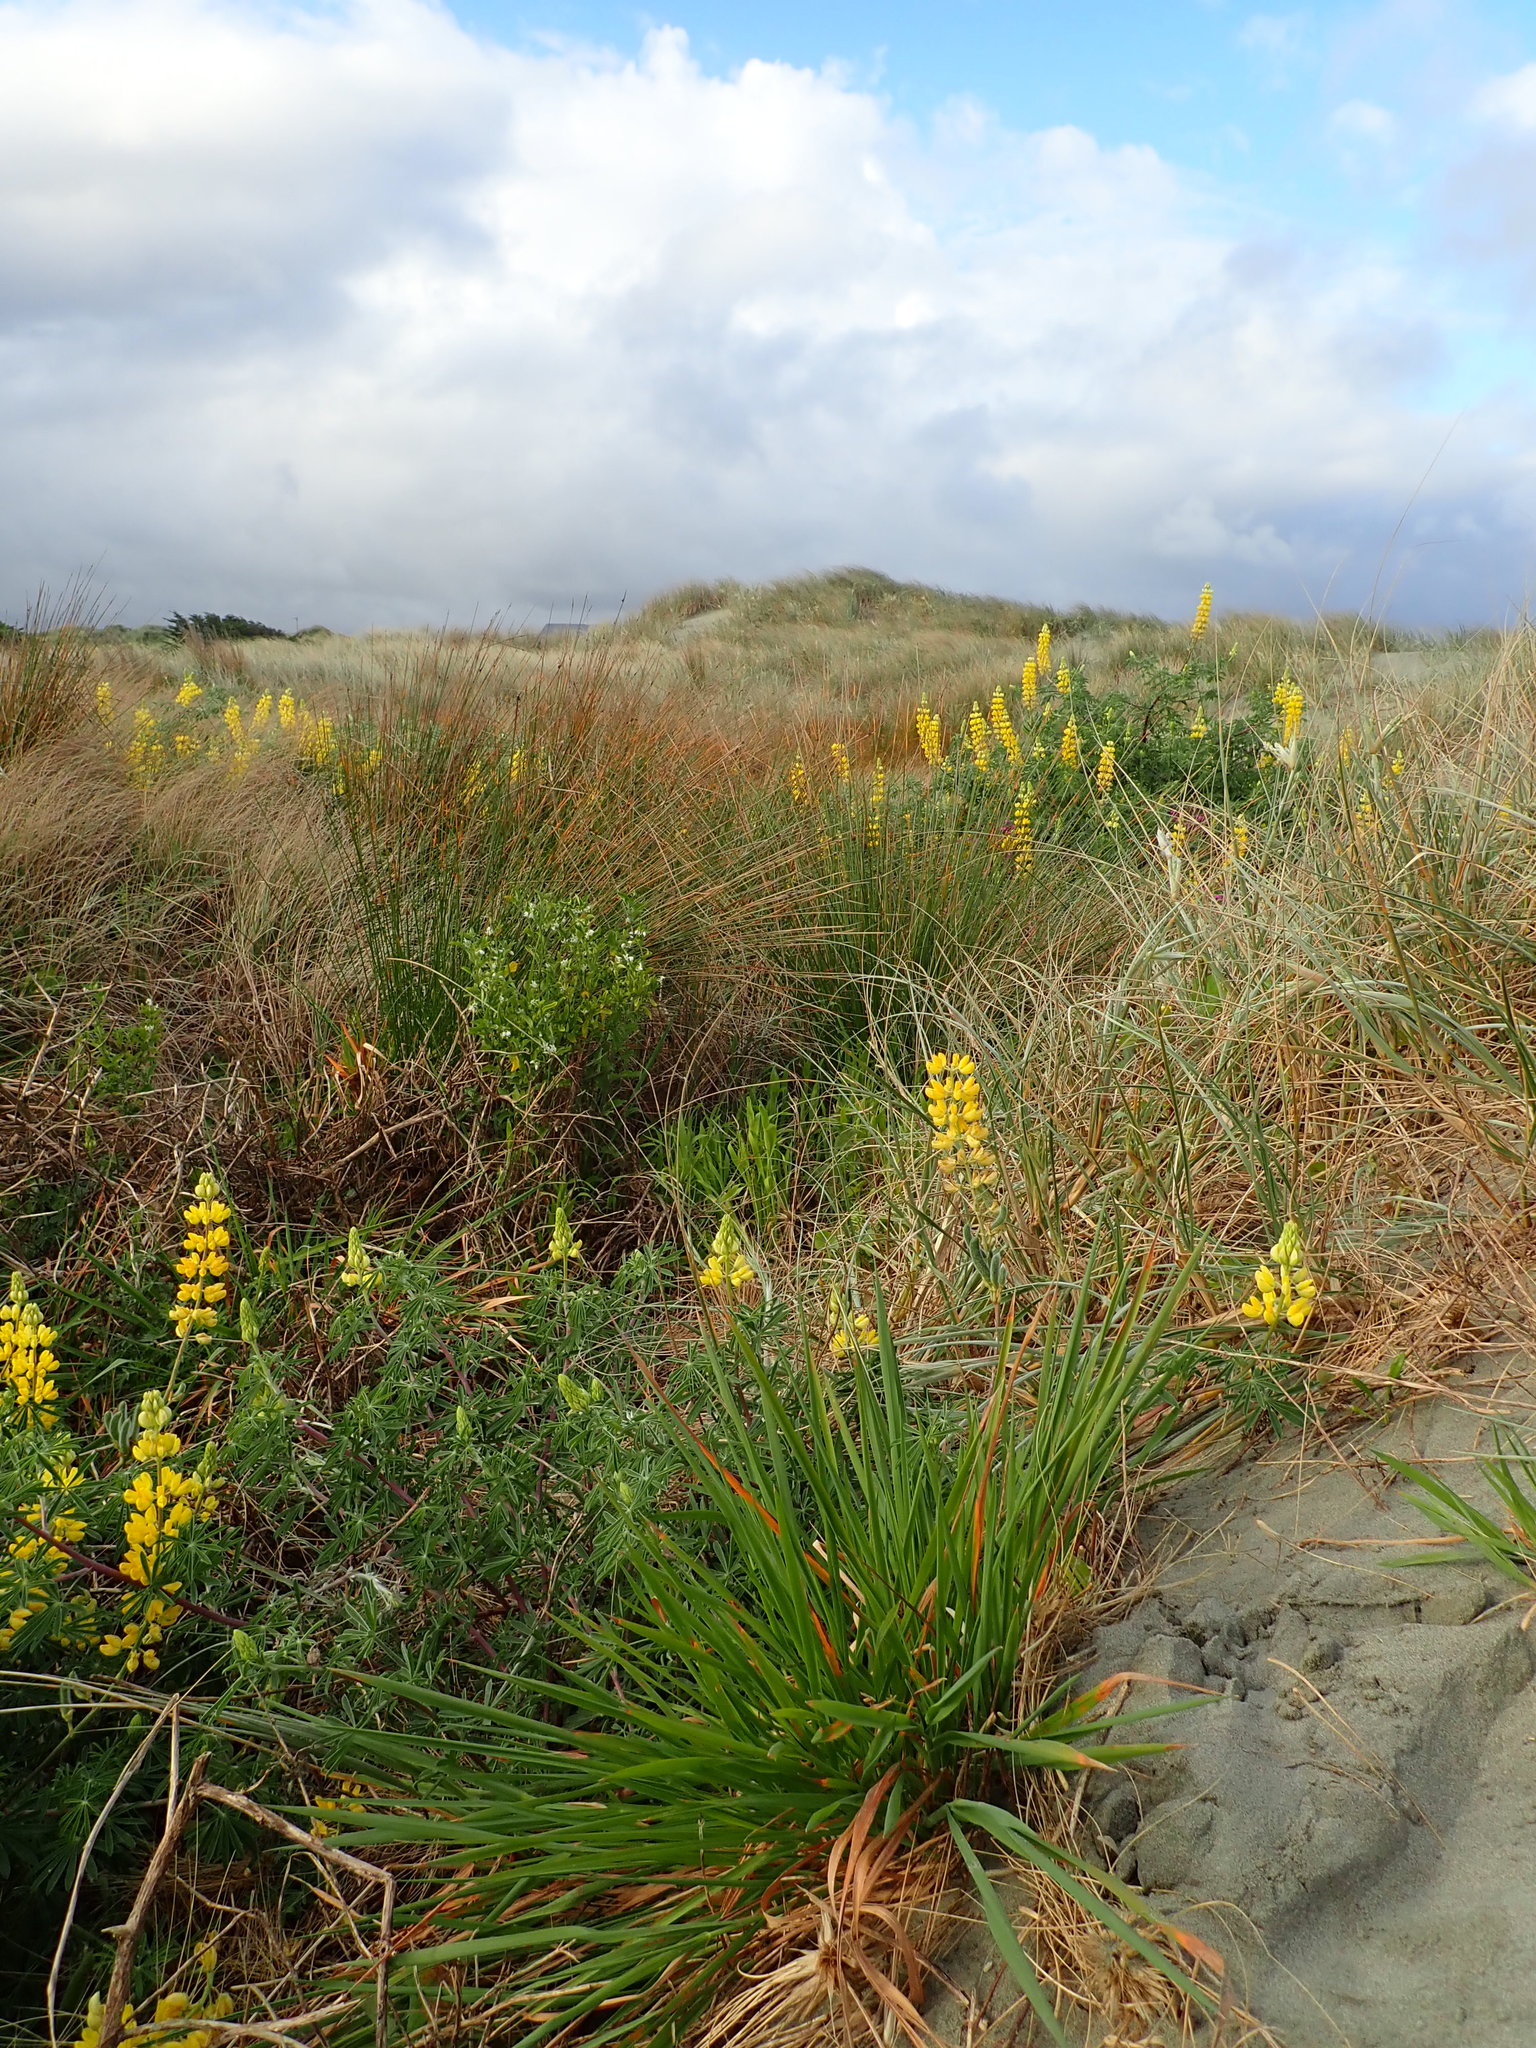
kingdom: Plantae
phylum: Tracheophyta
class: Liliopsida
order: Poales
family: Poaceae
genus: Lachnagrostis
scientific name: Lachnagrostis billardierei
